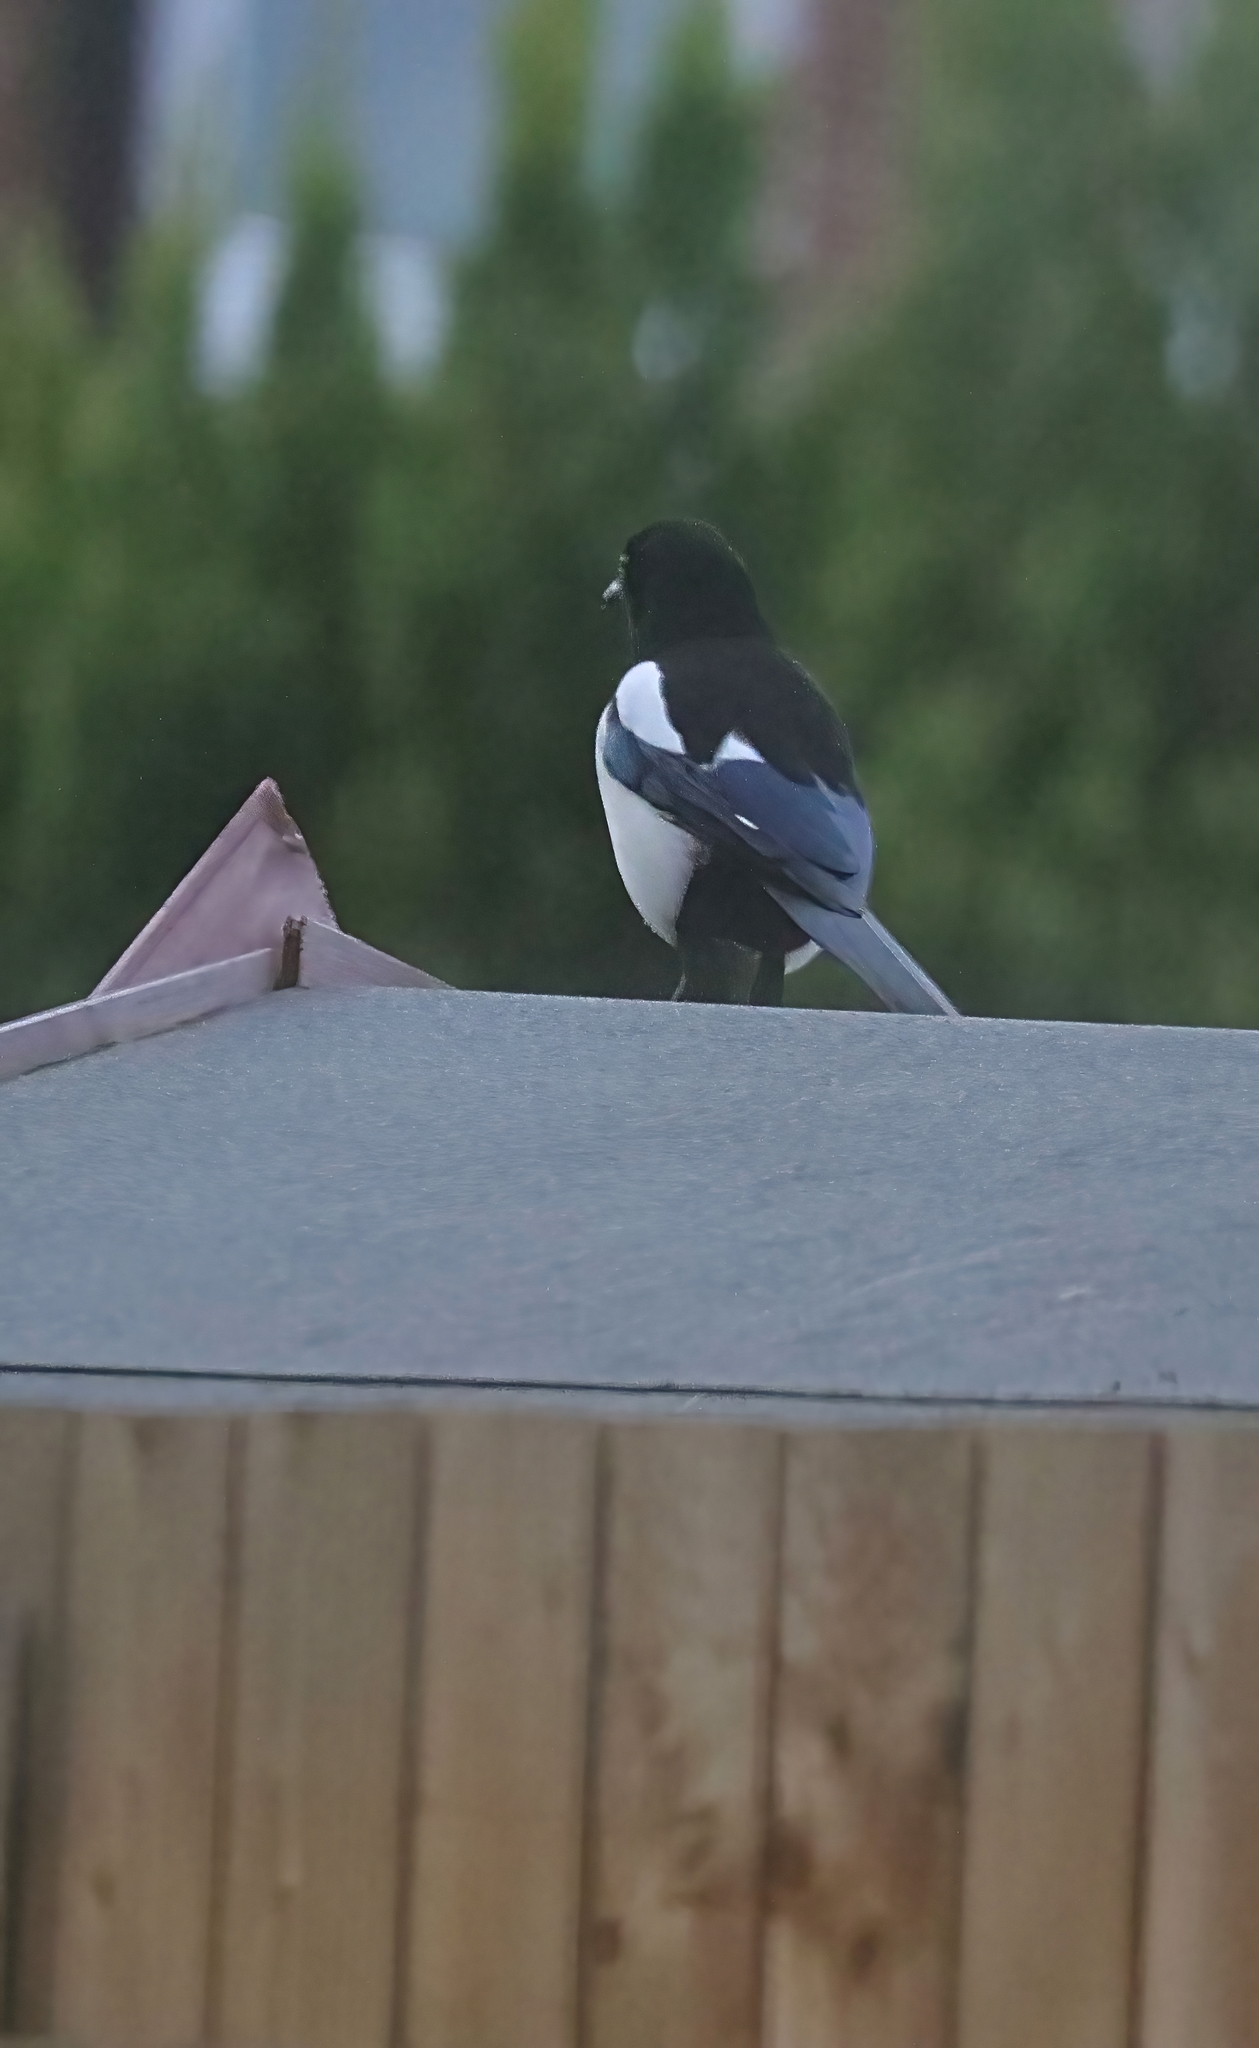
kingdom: Animalia
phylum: Chordata
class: Aves
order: Passeriformes
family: Corvidae
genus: Pica
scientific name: Pica pica
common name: Eurasian magpie
